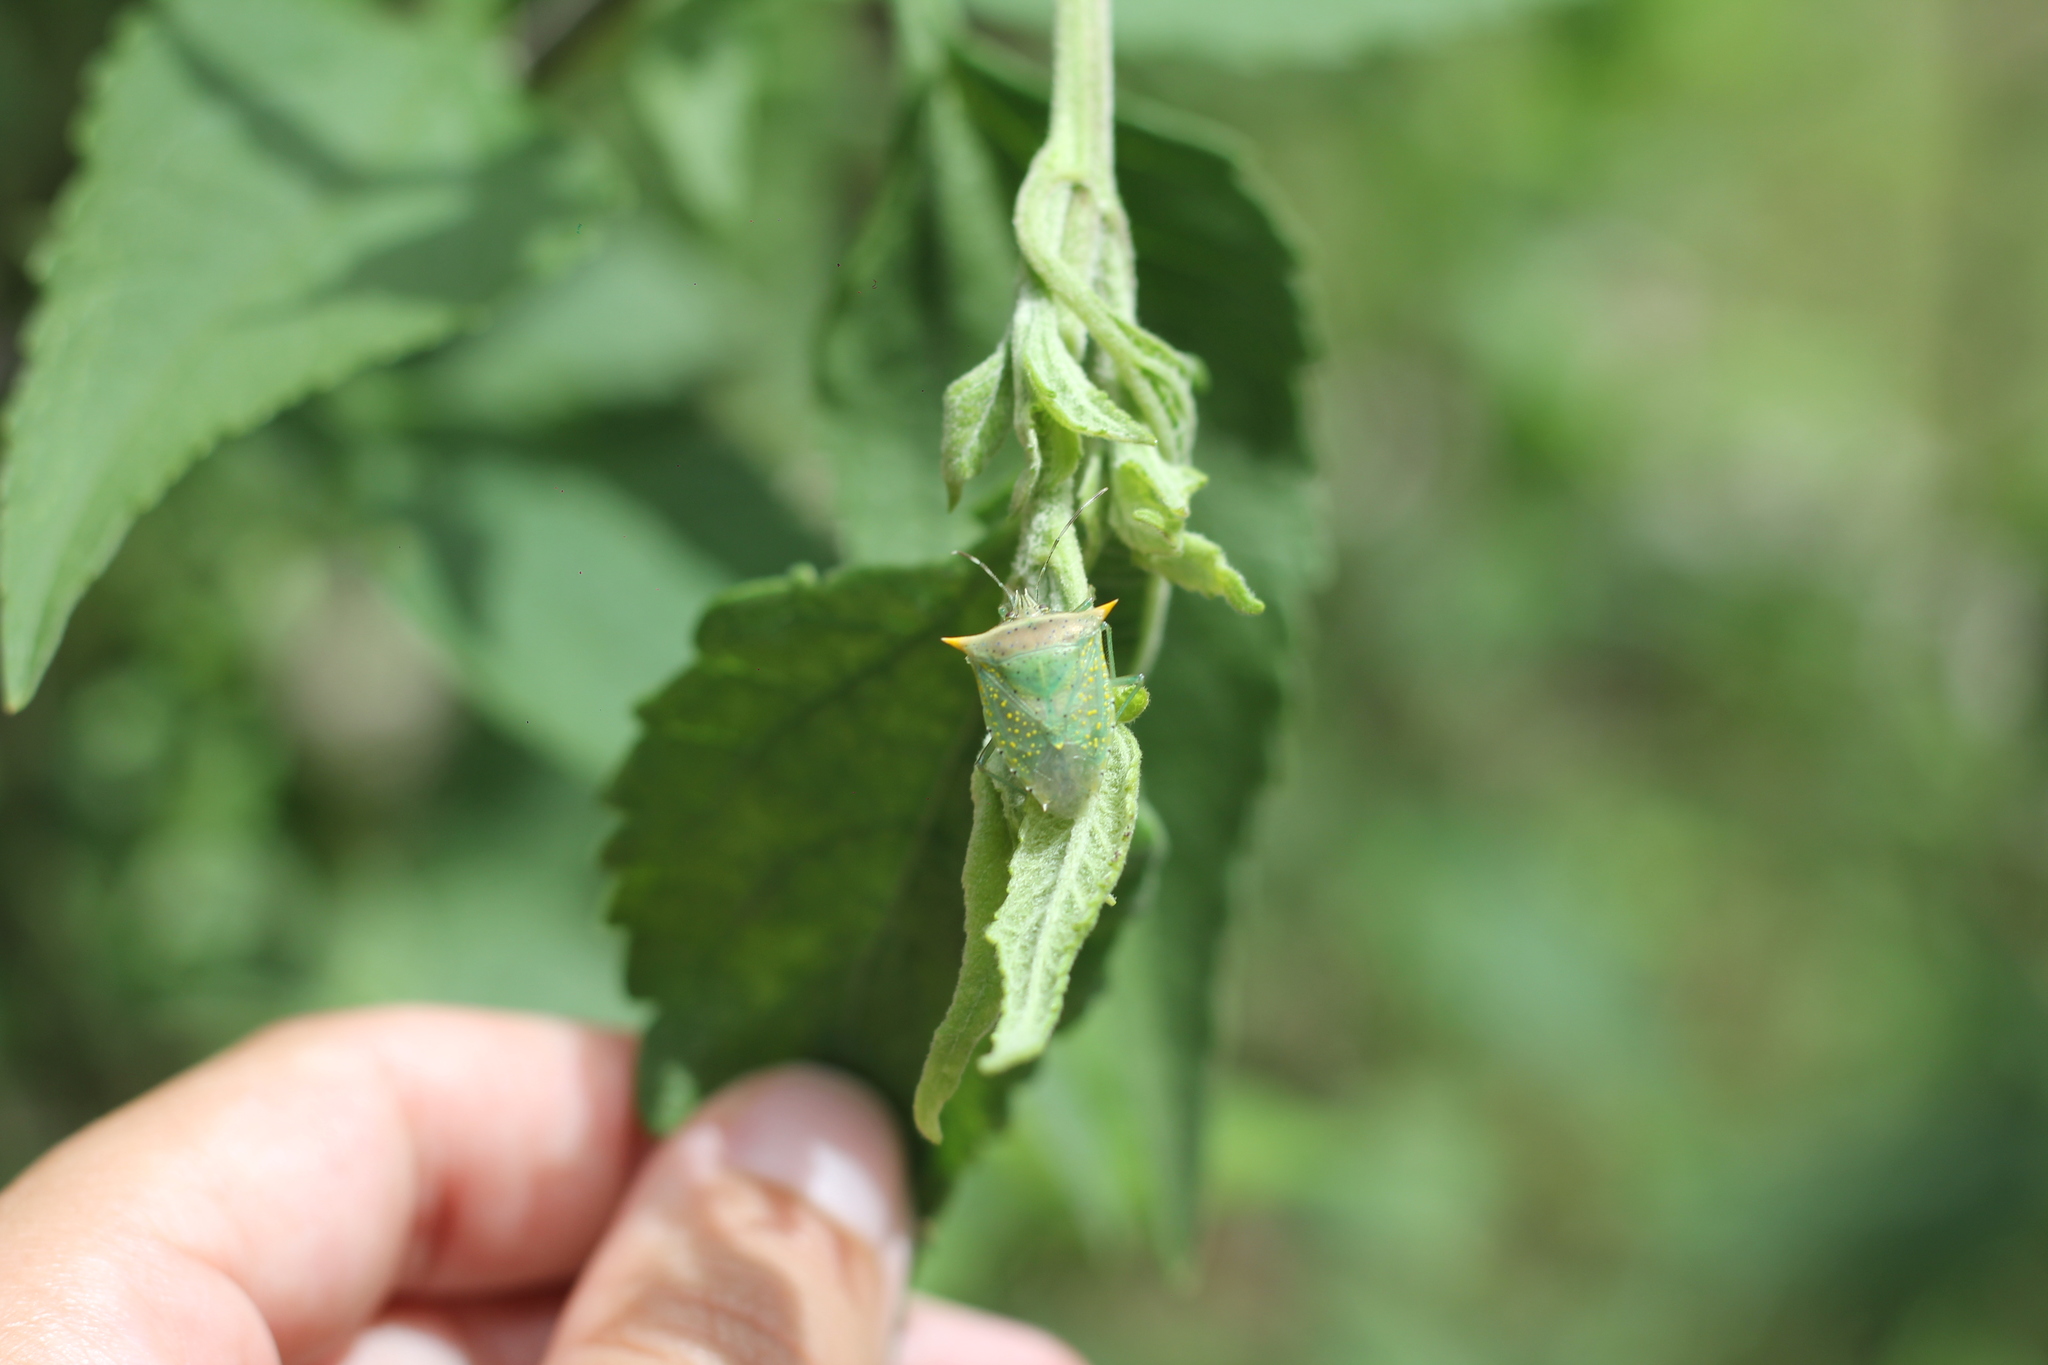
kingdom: Animalia
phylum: Arthropoda
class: Insecta
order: Hemiptera
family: Pentatomidae
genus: Arvelius
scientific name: Arvelius albopunctatus
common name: Tomato stink bug
